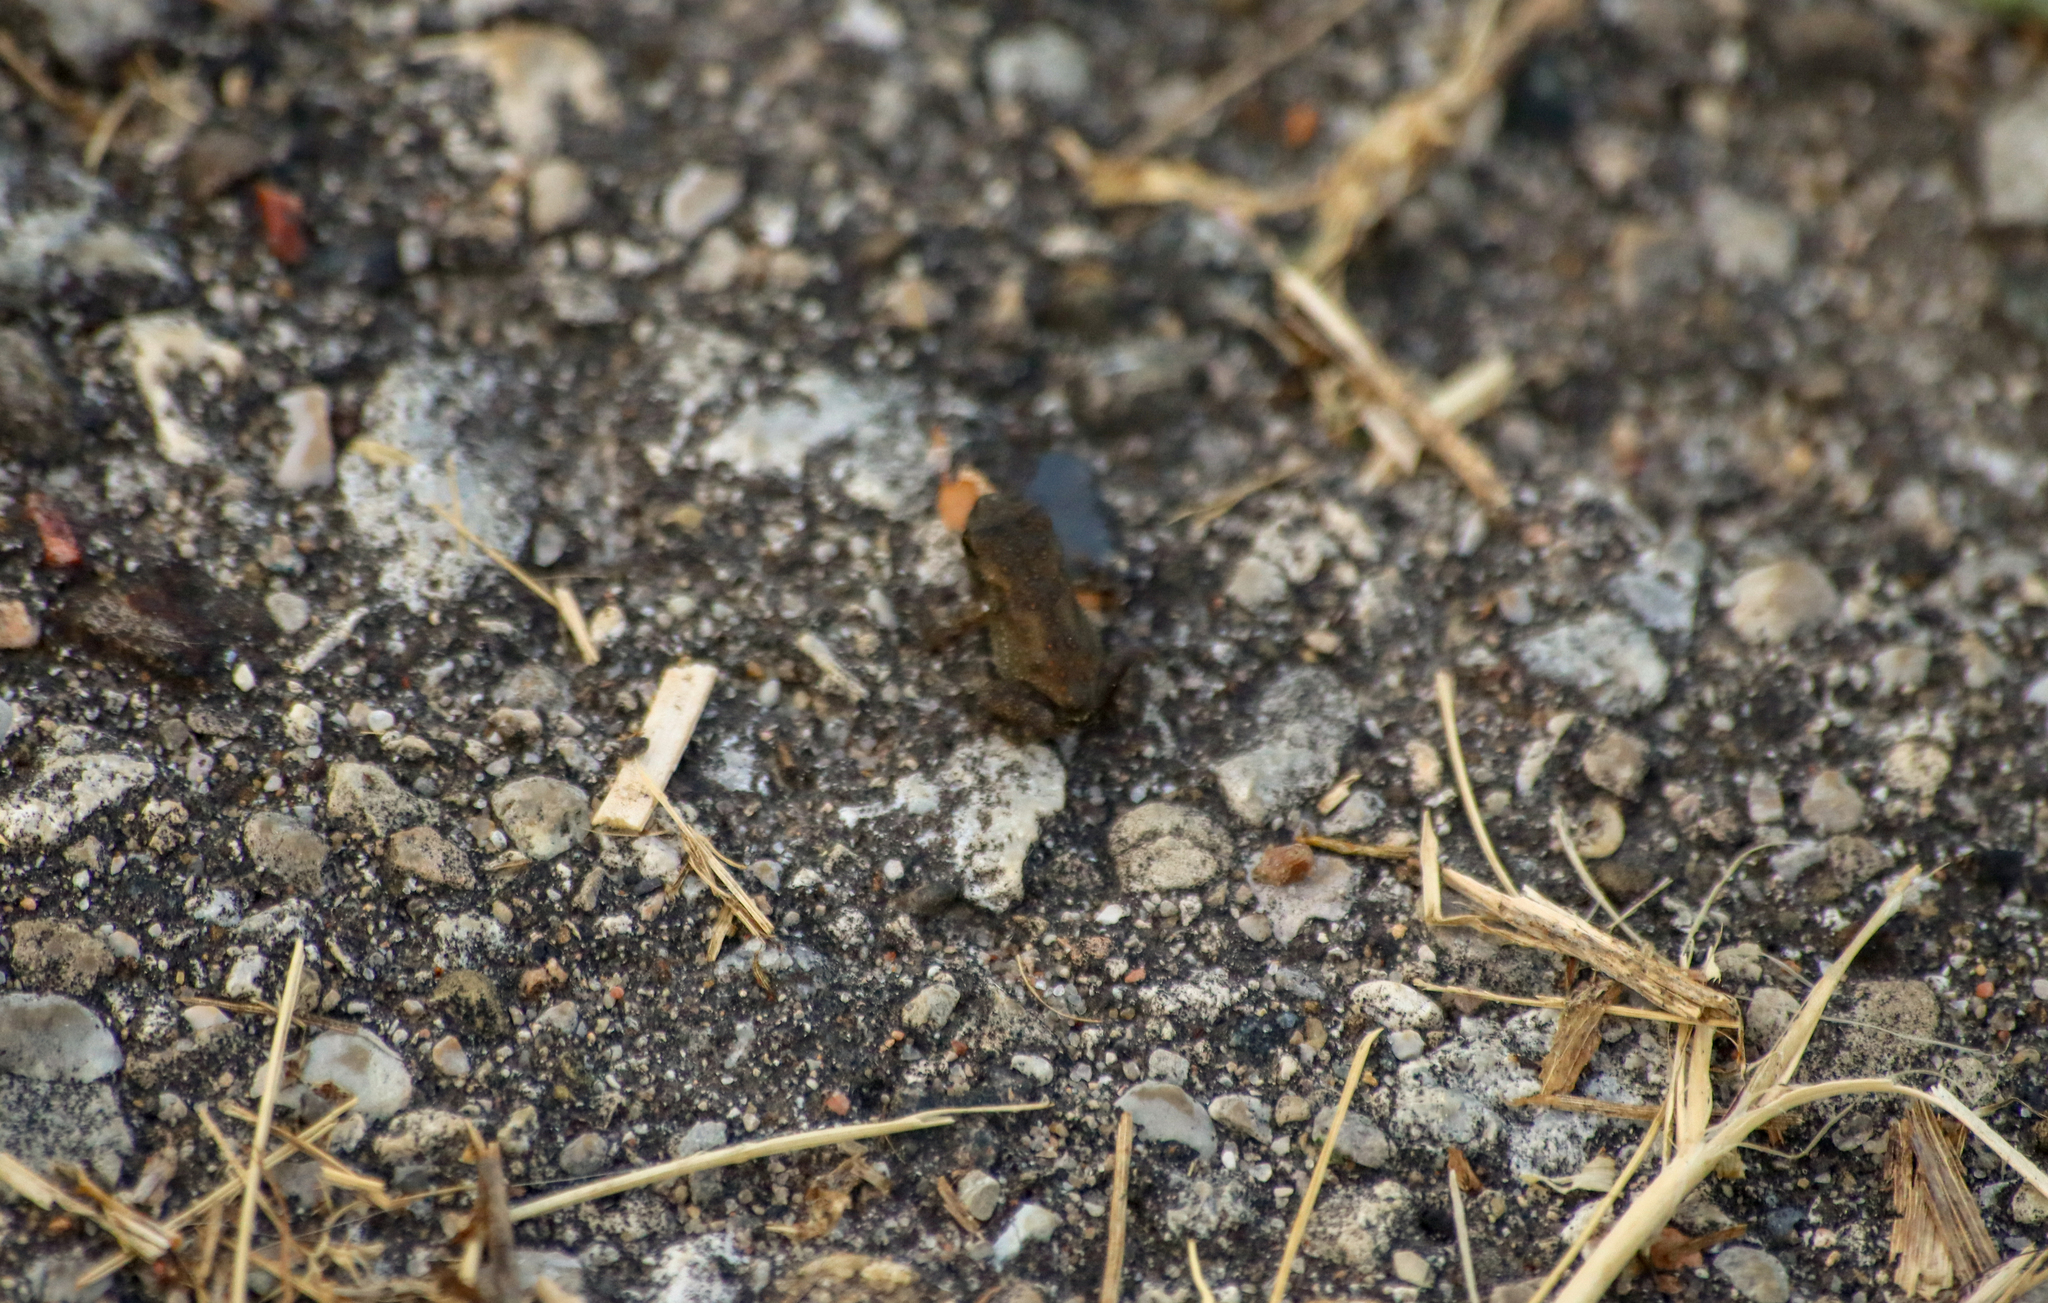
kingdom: Animalia
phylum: Chordata
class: Amphibia
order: Anura
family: Bufonidae
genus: Anaxyrus
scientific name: Anaxyrus americanus
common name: American toad
